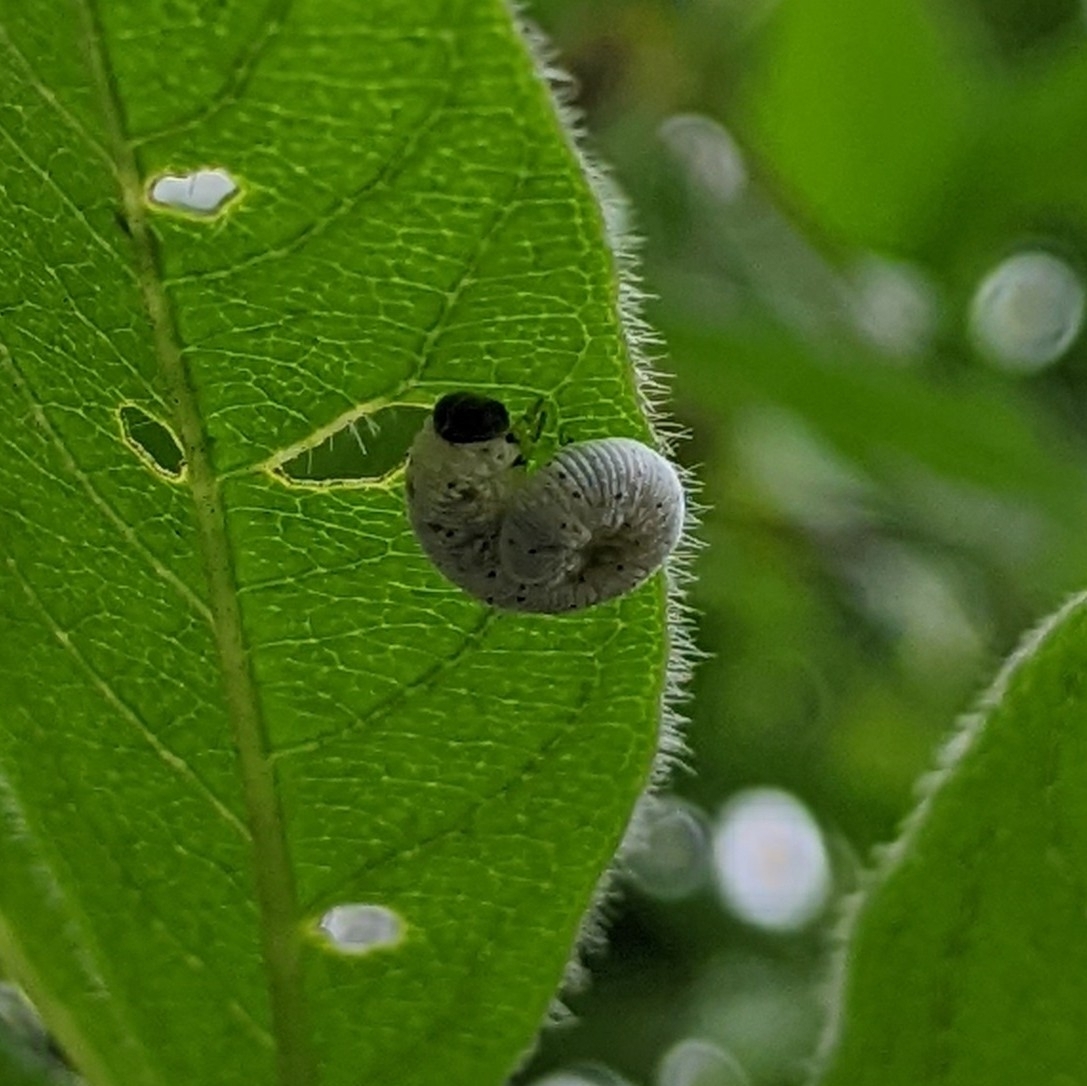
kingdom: Animalia
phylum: Arthropoda
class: Insecta
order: Hymenoptera
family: Cimbicidae
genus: Abia
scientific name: Abia americana
